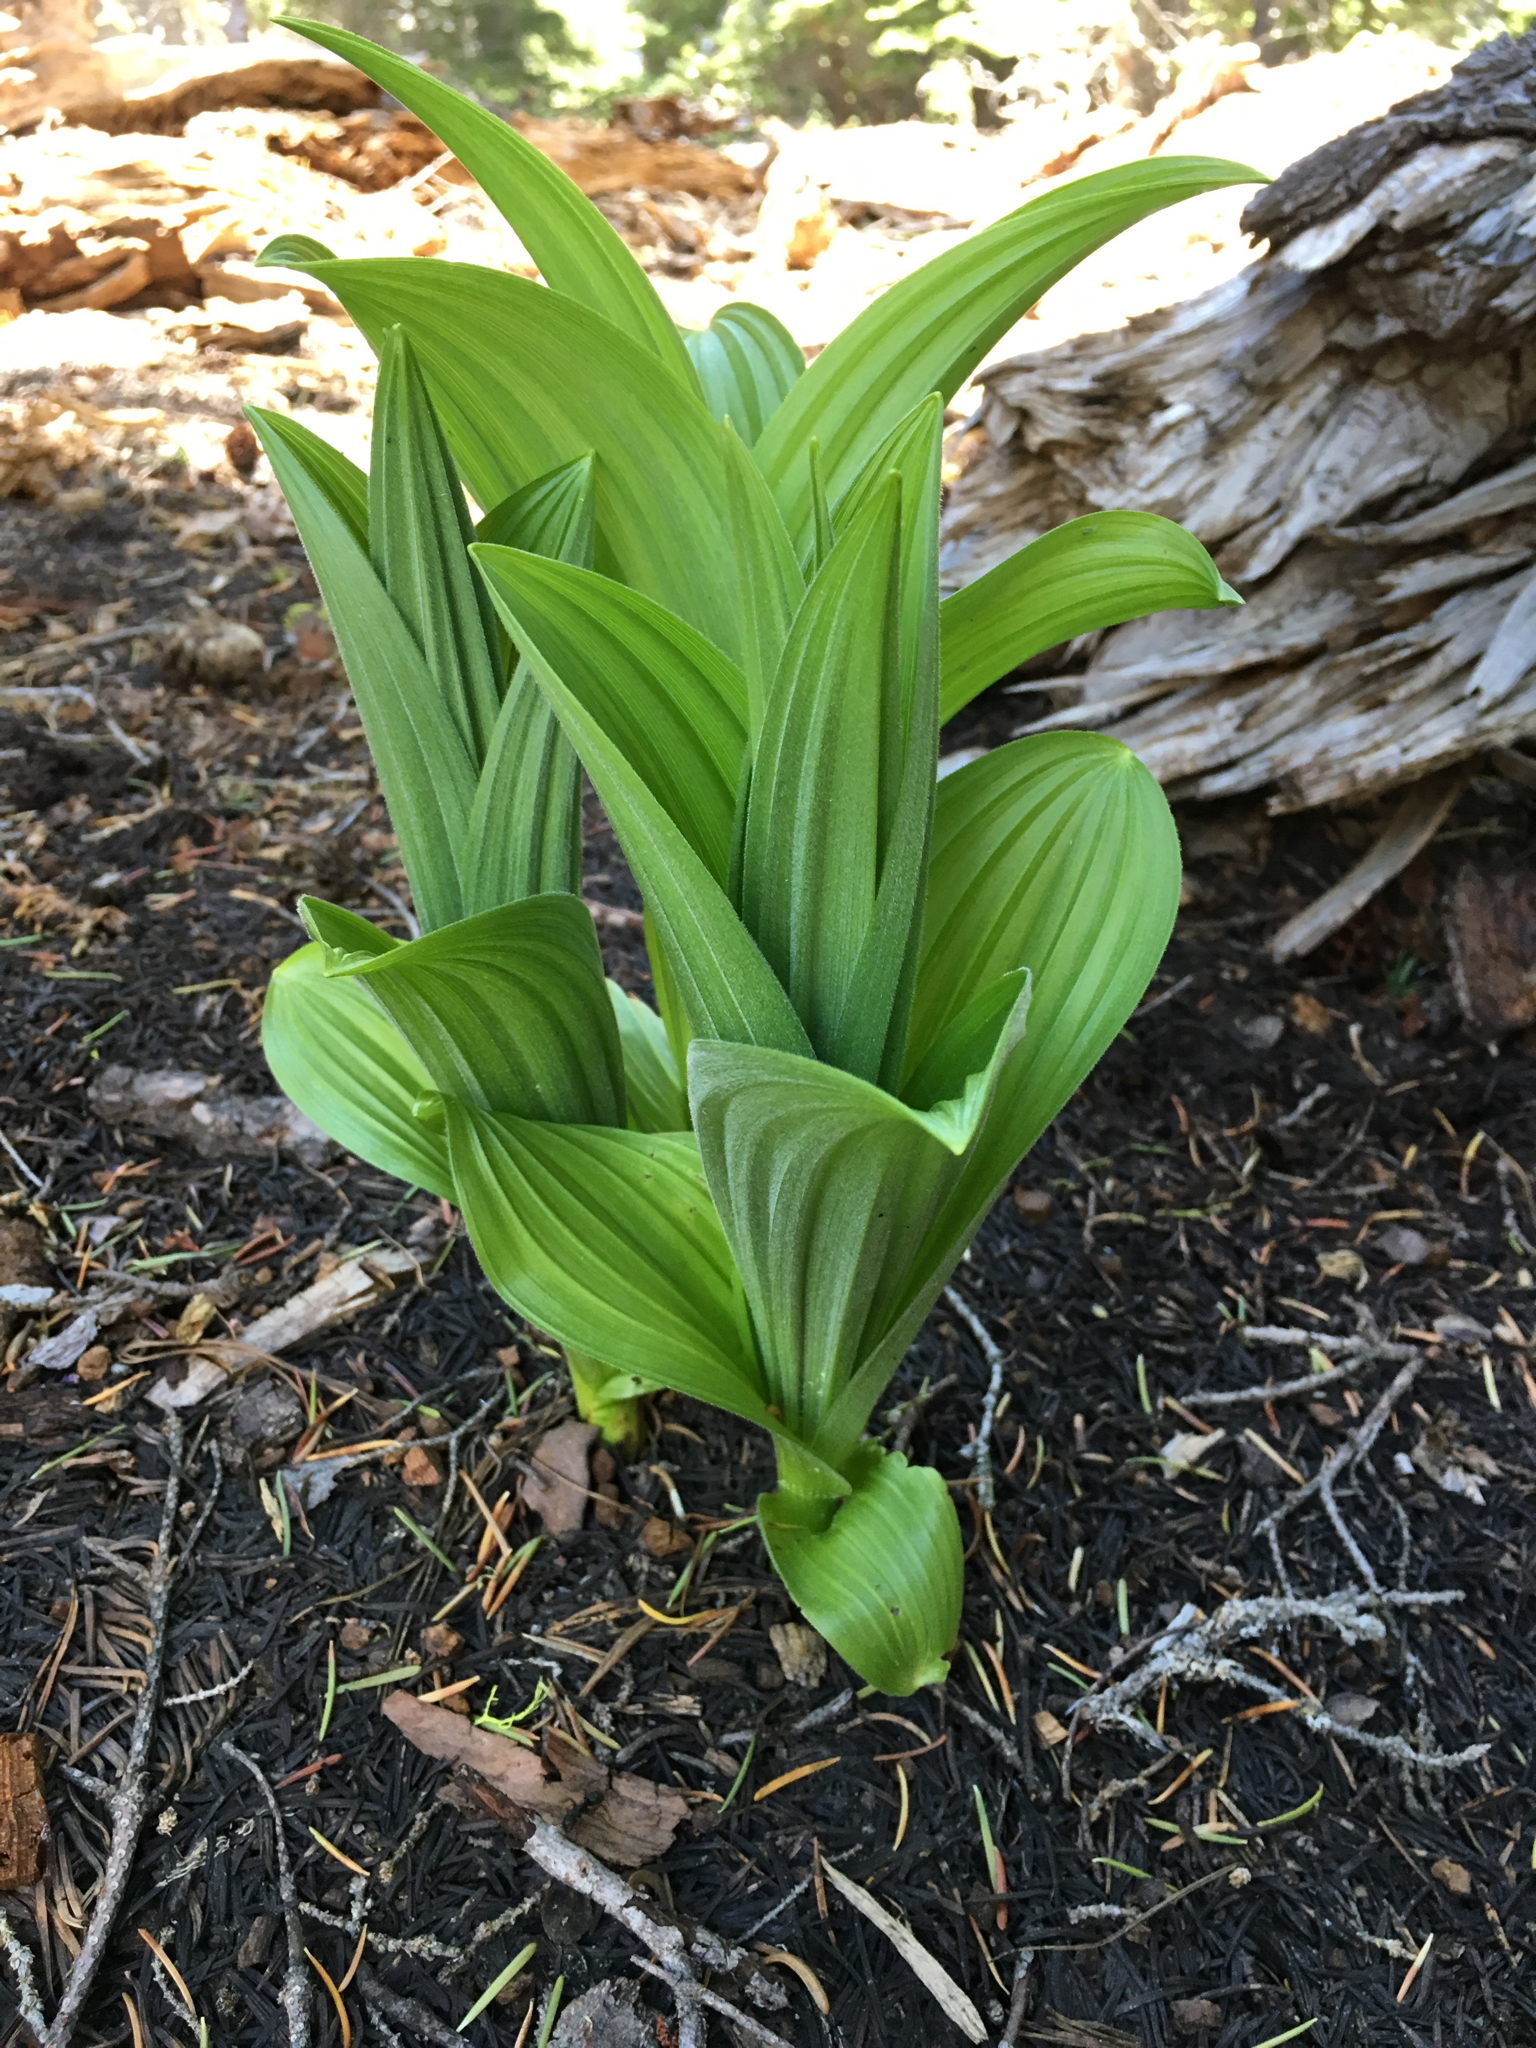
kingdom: Plantae
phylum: Tracheophyta
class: Liliopsida
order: Liliales
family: Melanthiaceae
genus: Veratrum
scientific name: Veratrum californicum
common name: California veratrum
